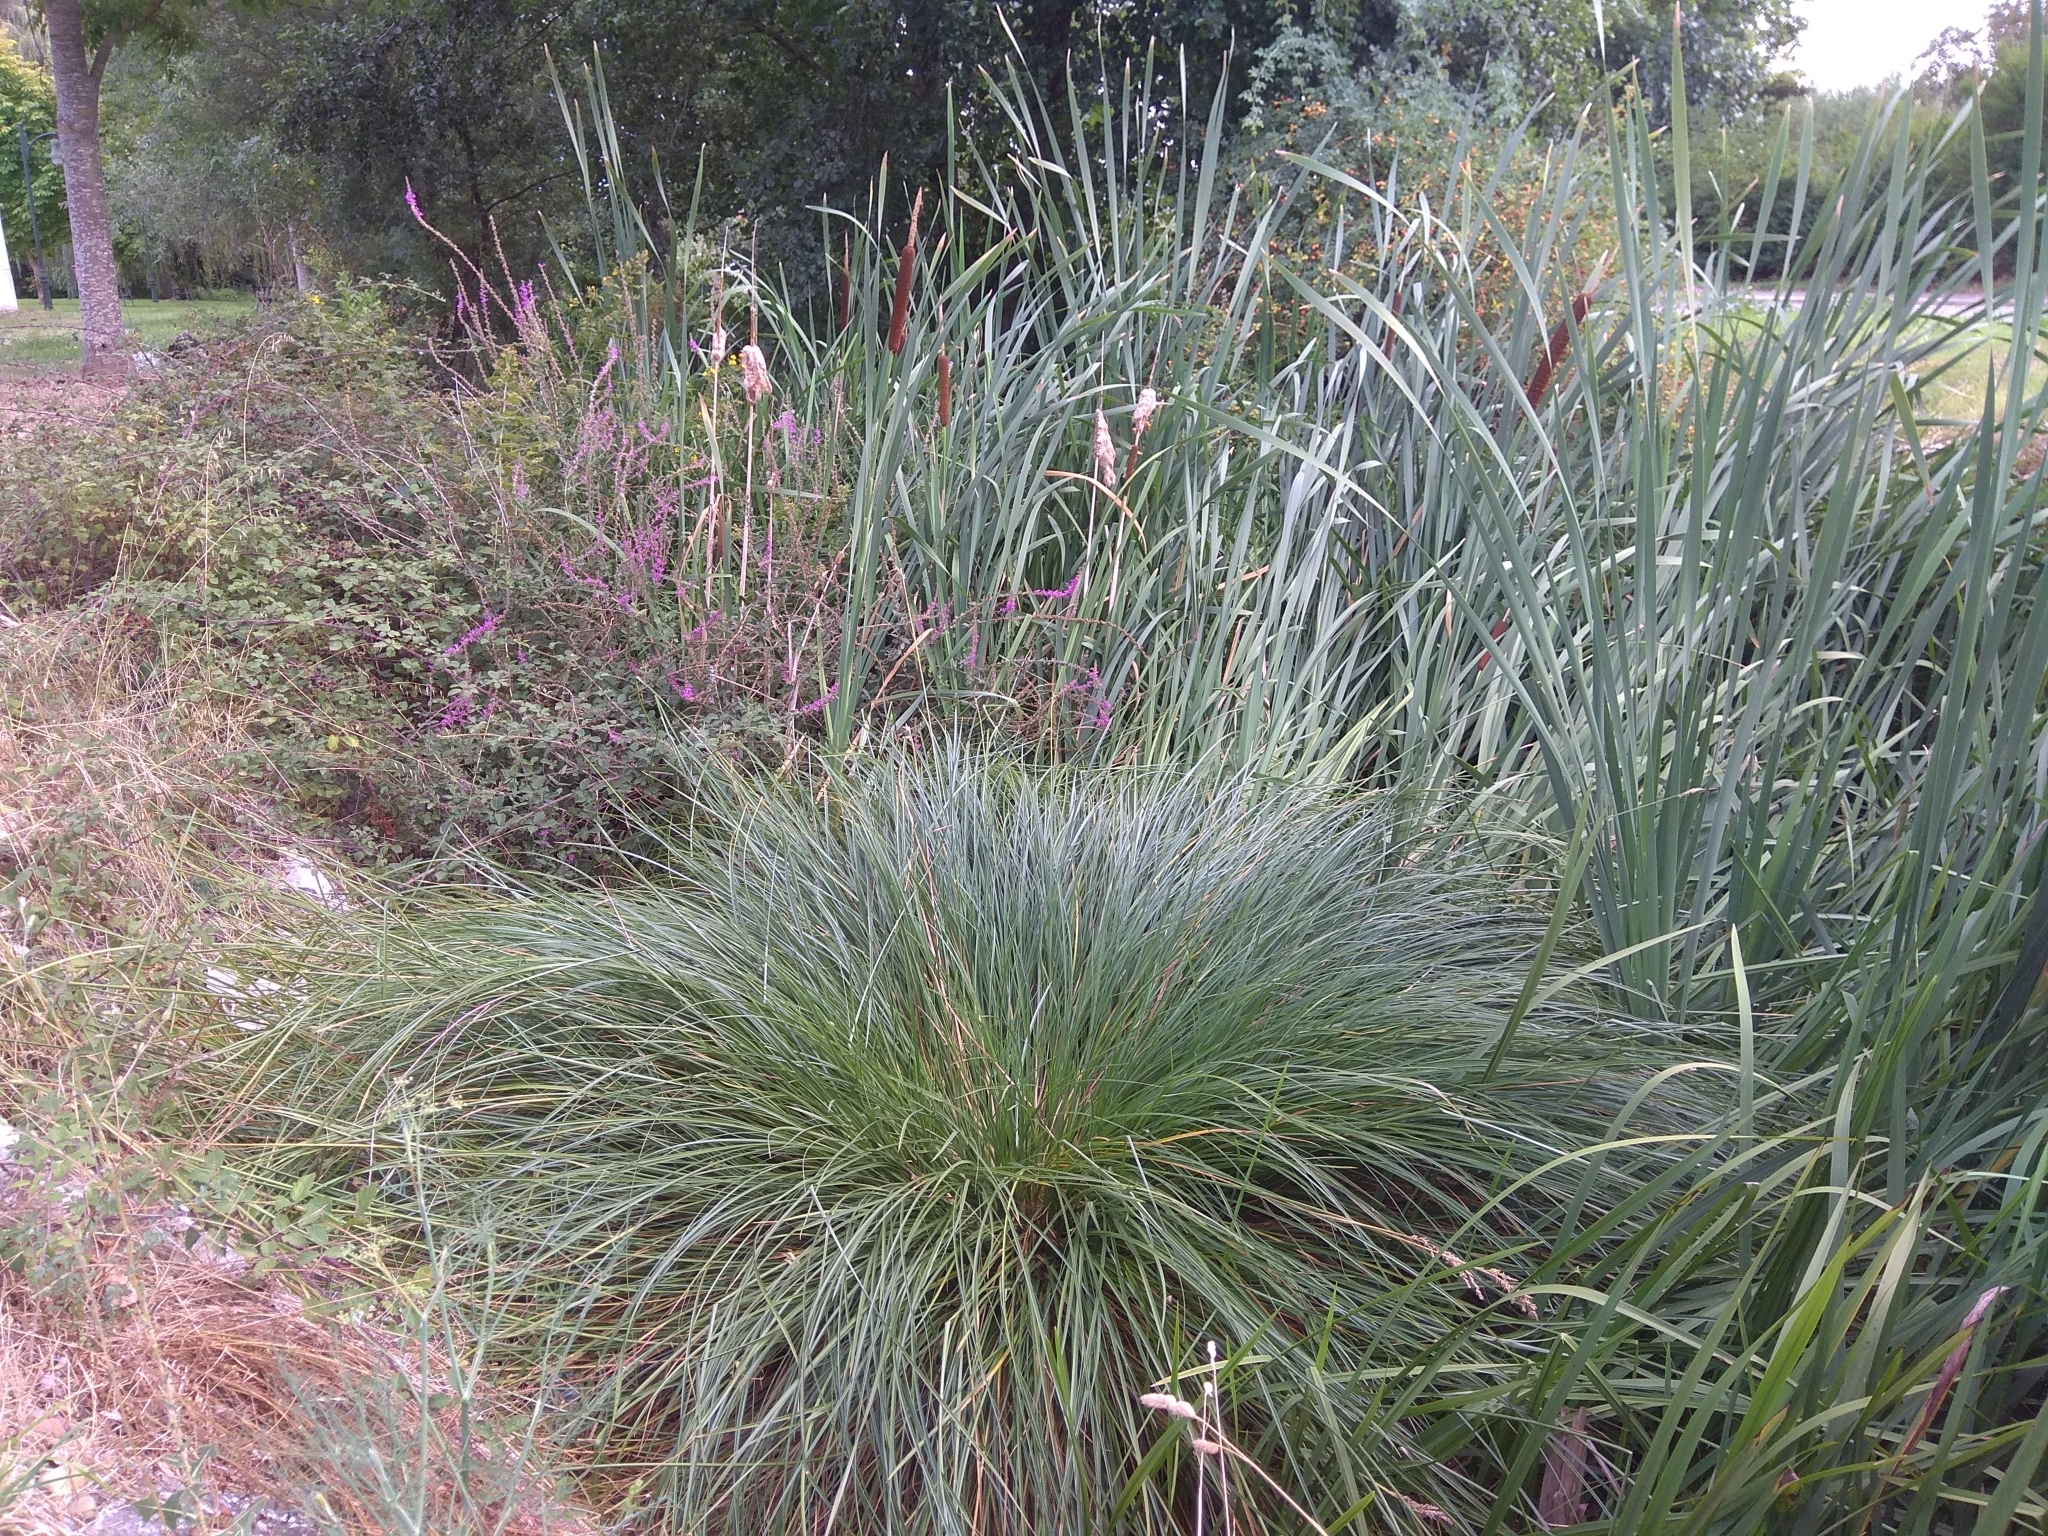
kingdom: Plantae
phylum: Tracheophyta
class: Liliopsida
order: Poales
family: Cyperaceae
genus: Carex
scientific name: Carex paniculata
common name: Greater tussock-sedge
